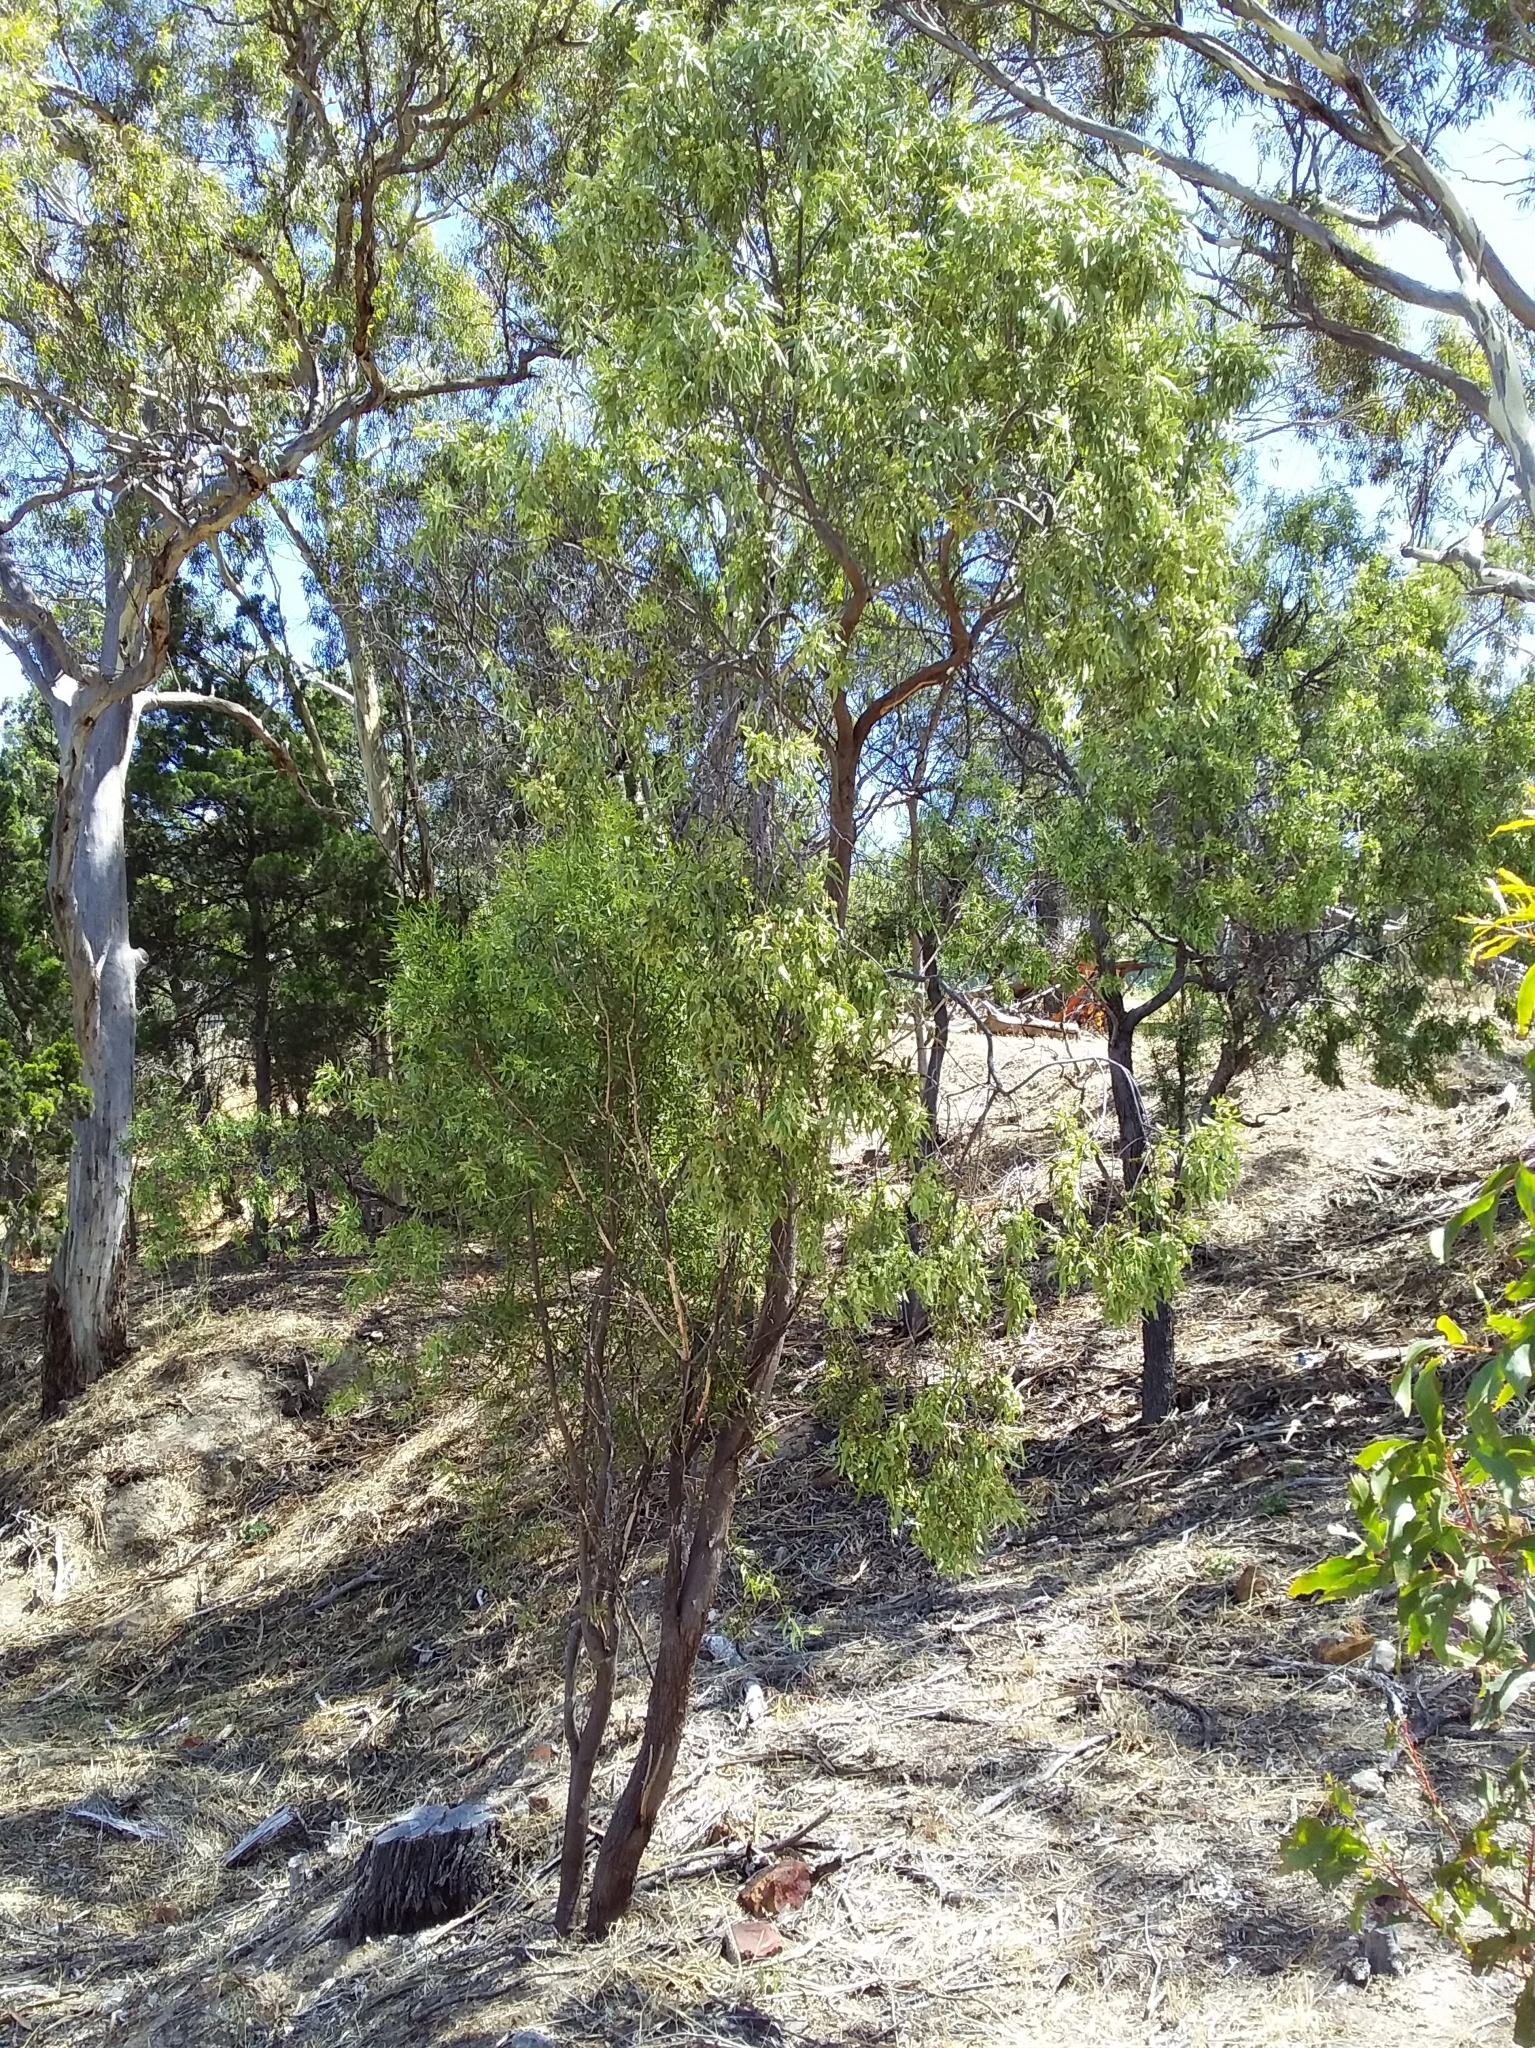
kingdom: Plantae
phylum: Tracheophyta
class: Magnoliopsida
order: Santalales
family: Santalaceae
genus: Santalum
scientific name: Santalum acuminatum
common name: Sweet quandong
